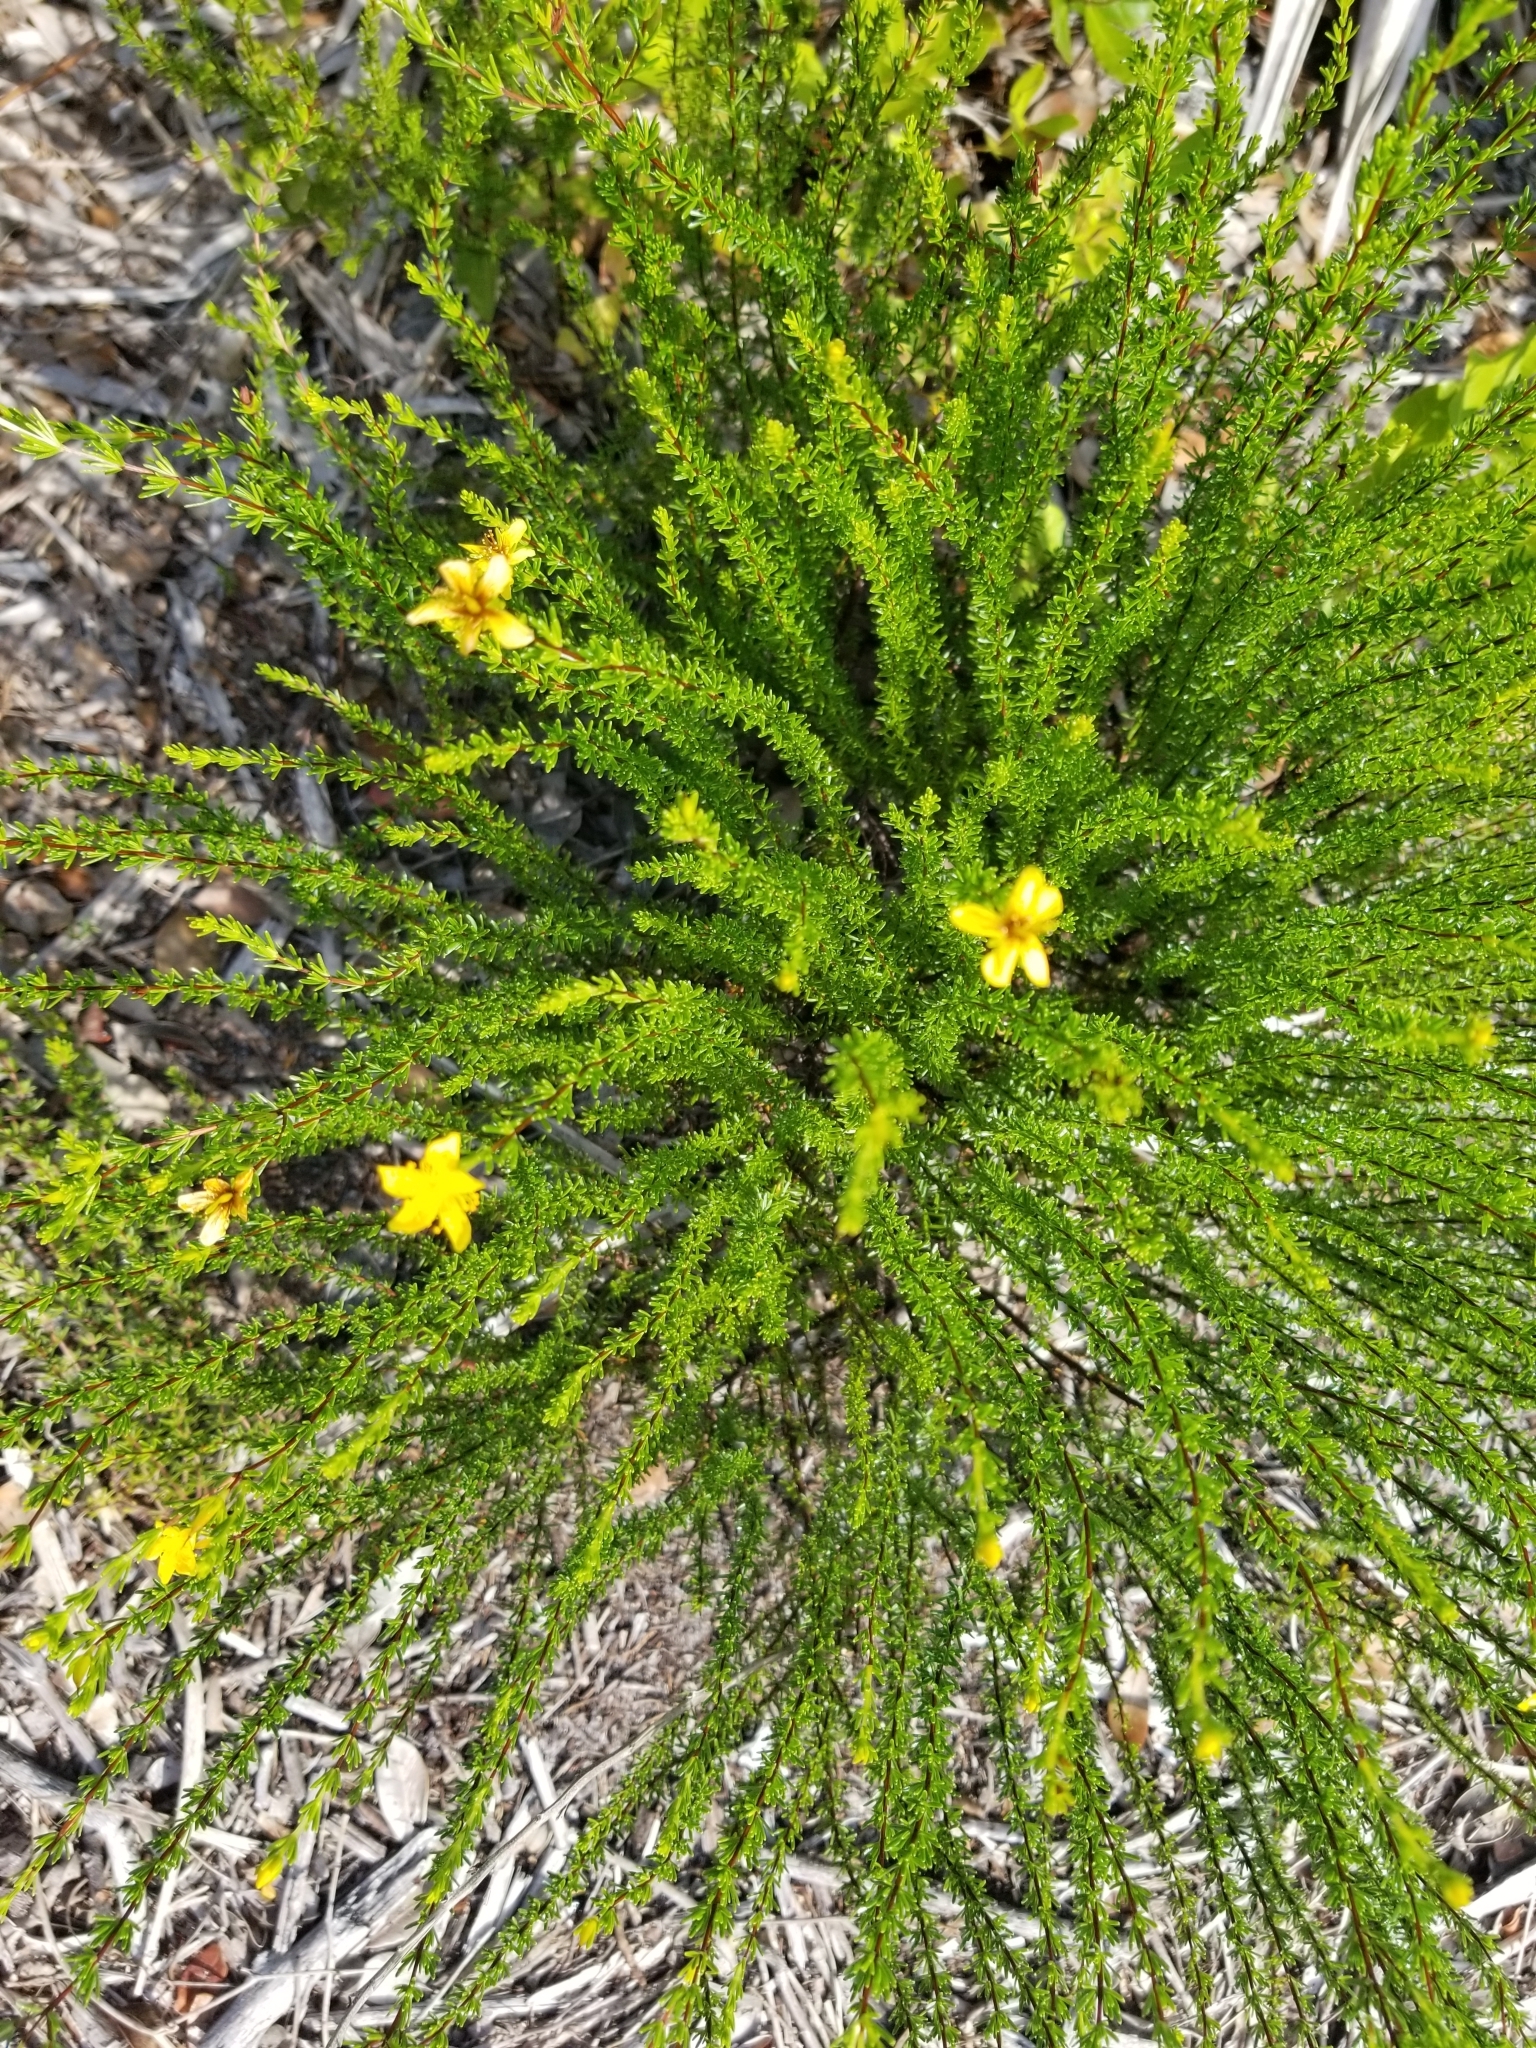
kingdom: Plantae
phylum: Tracheophyta
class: Magnoliopsida
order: Malpighiales
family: Hypericaceae
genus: Hypericum
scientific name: Hypericum tenuifolium
